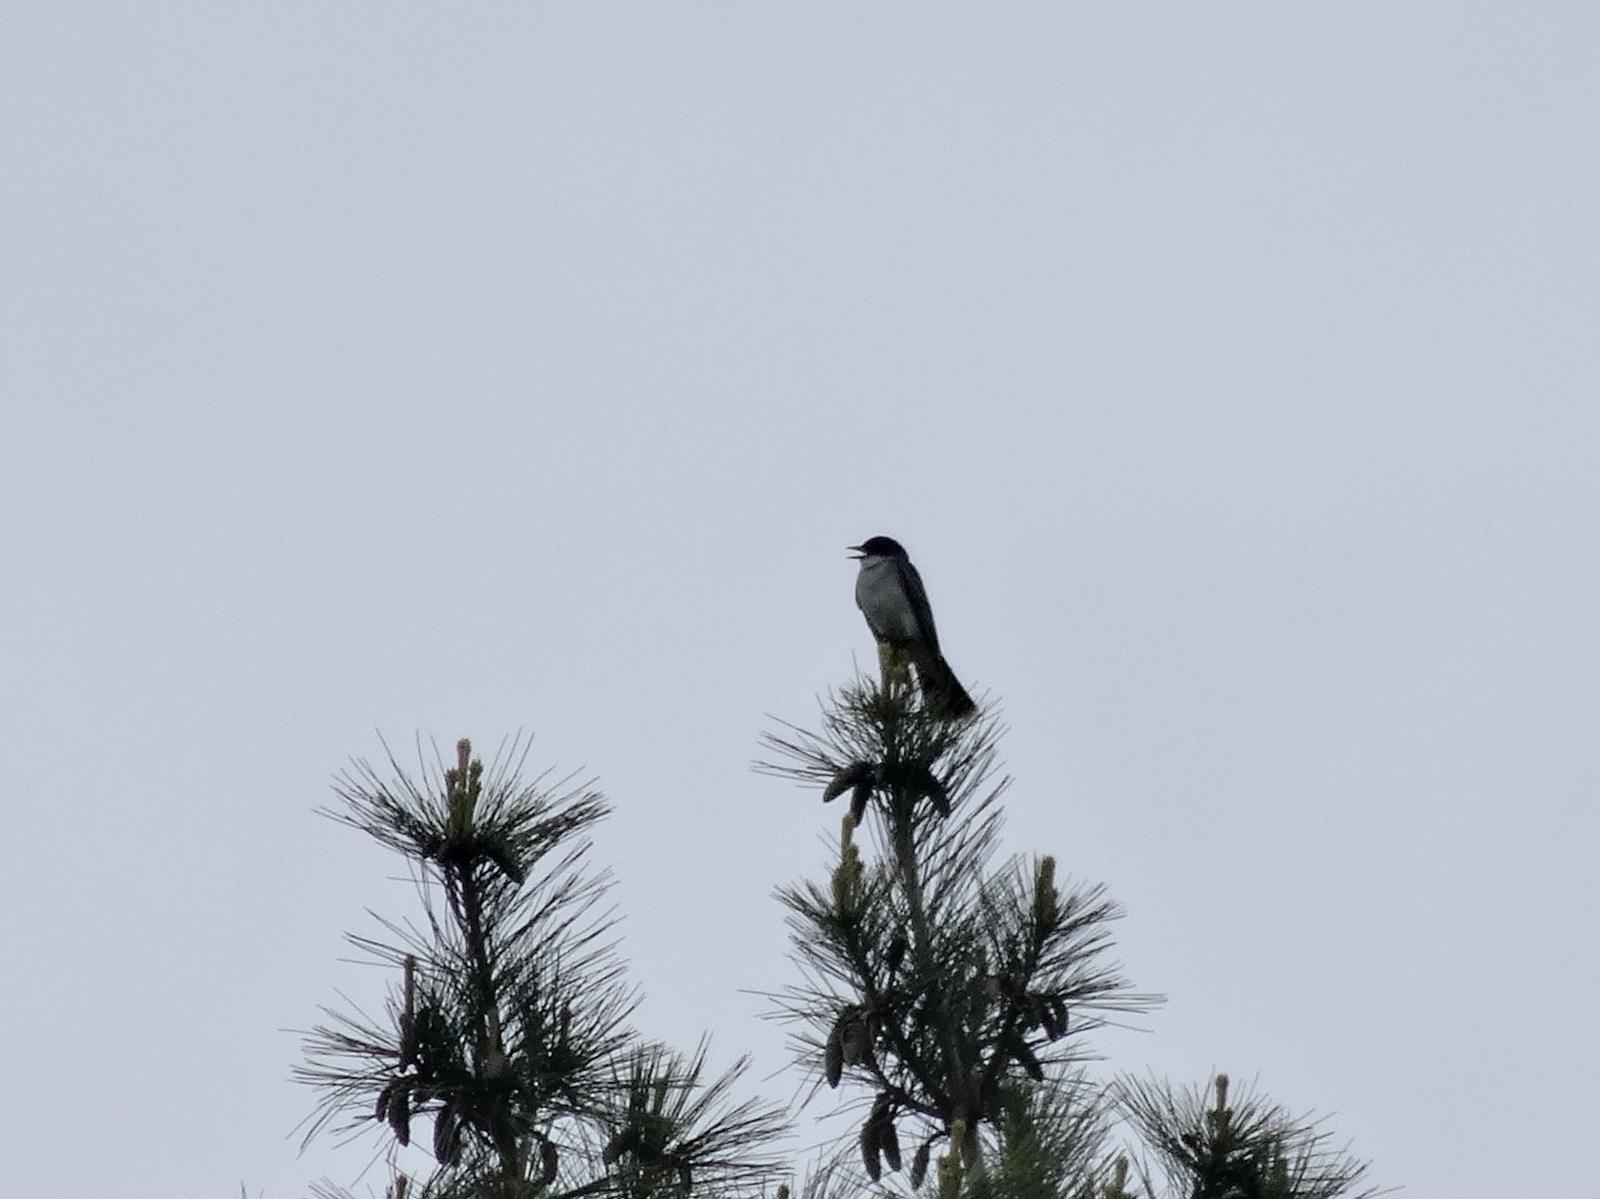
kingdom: Animalia
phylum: Chordata
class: Aves
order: Passeriformes
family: Tyrannidae
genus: Tyrannus
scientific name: Tyrannus tyrannus
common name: Eastern kingbird
